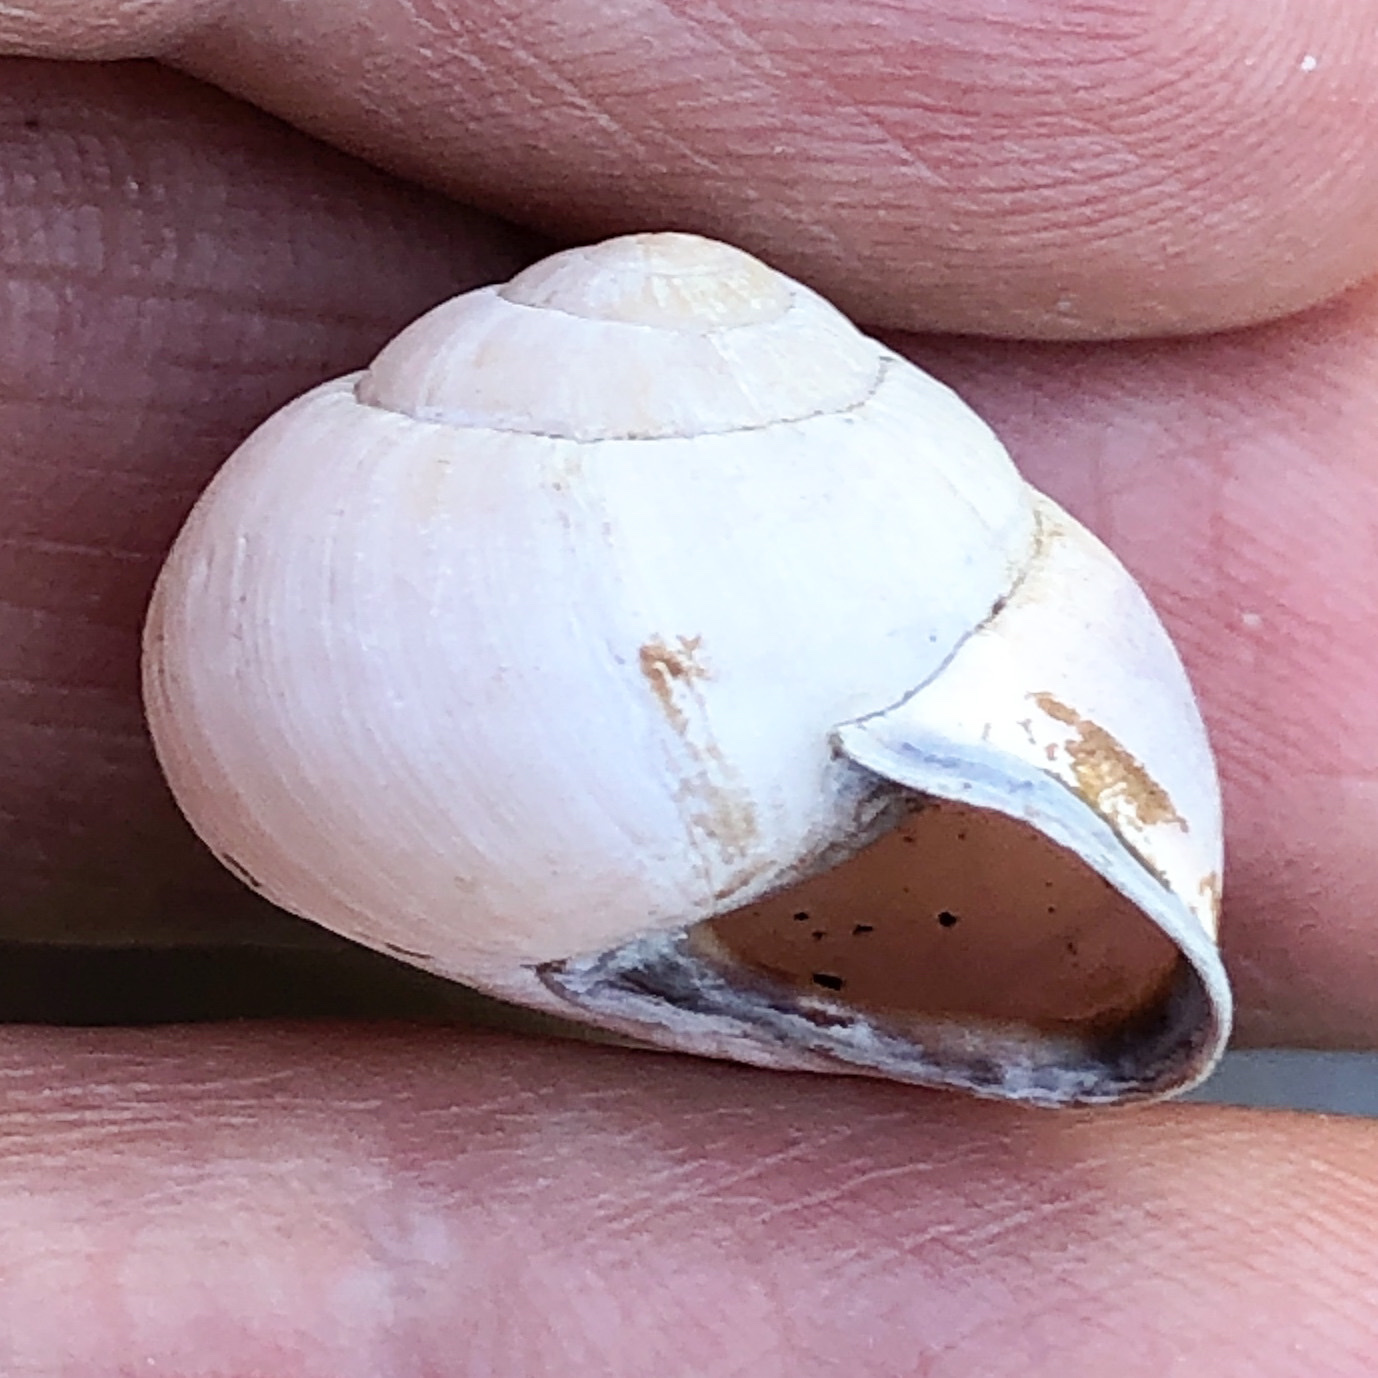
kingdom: Animalia
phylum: Mollusca
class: Gastropoda
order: Stylommatophora
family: Helicidae
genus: Cepaea
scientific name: Cepaea nemoralis
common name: Grovesnail
